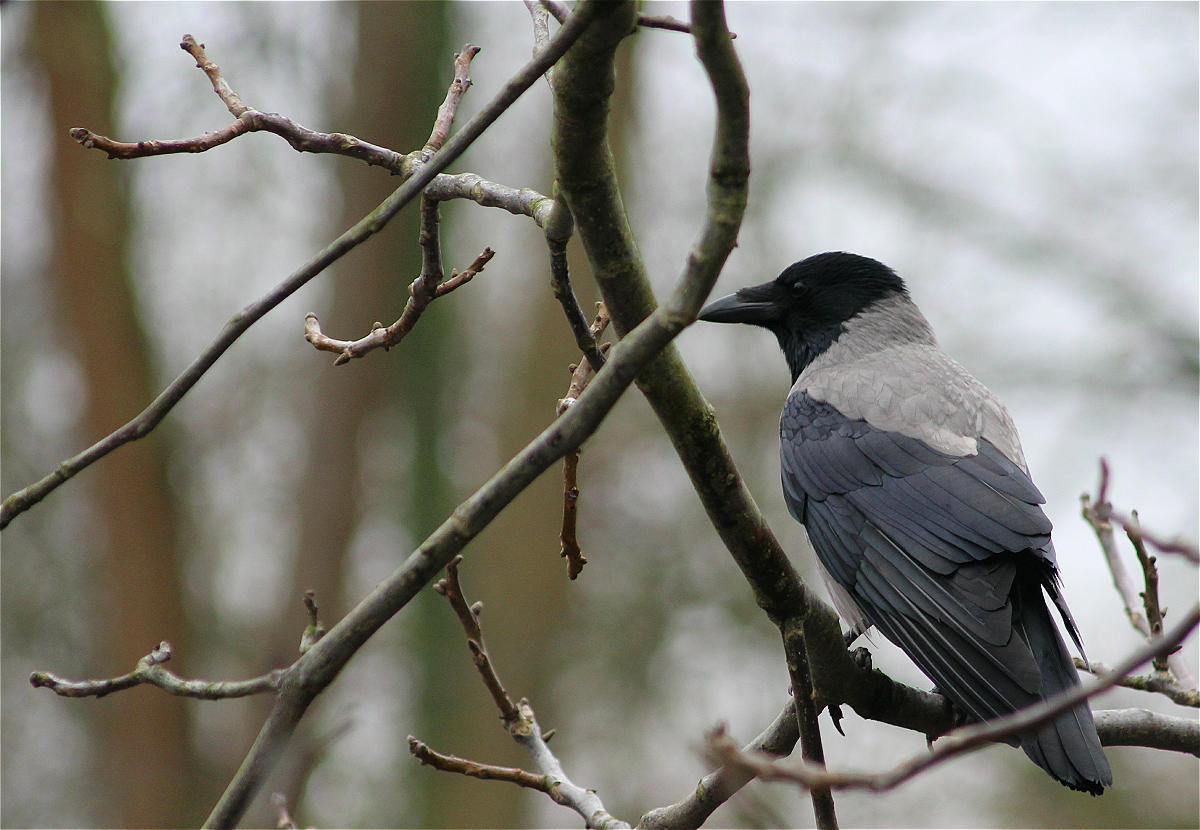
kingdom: Animalia
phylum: Chordata
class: Aves
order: Passeriformes
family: Corvidae
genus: Corvus
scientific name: Corvus cornix
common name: Hooded crow
